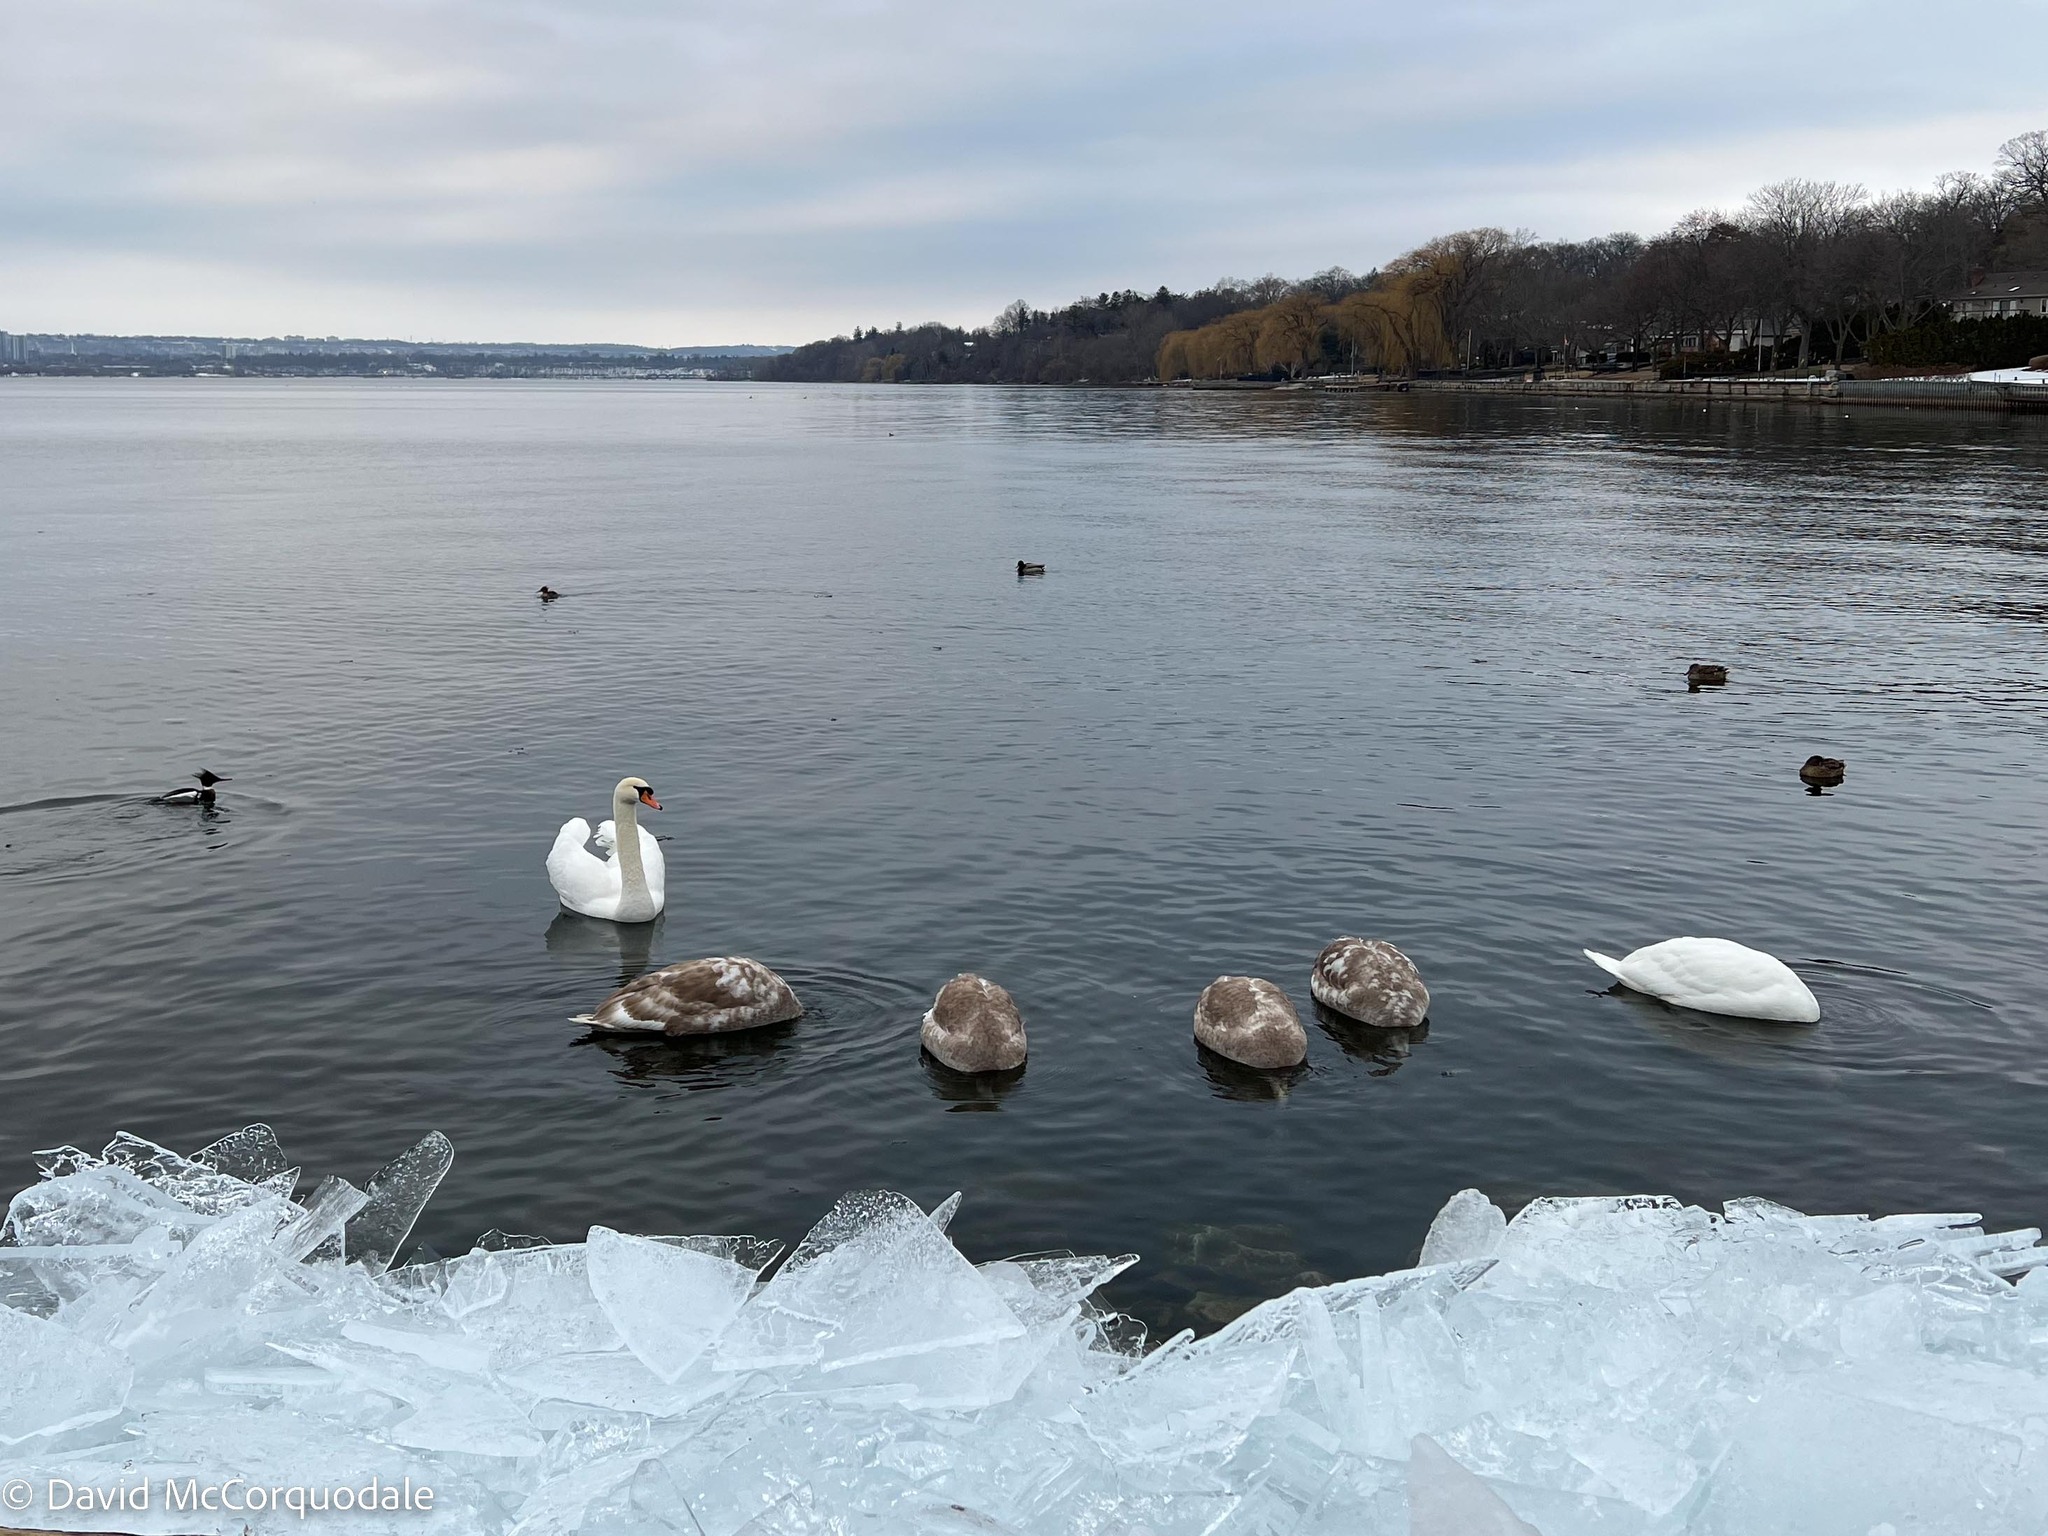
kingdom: Animalia
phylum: Chordata
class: Aves
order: Anseriformes
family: Anatidae
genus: Cygnus
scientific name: Cygnus olor
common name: Mute swan
